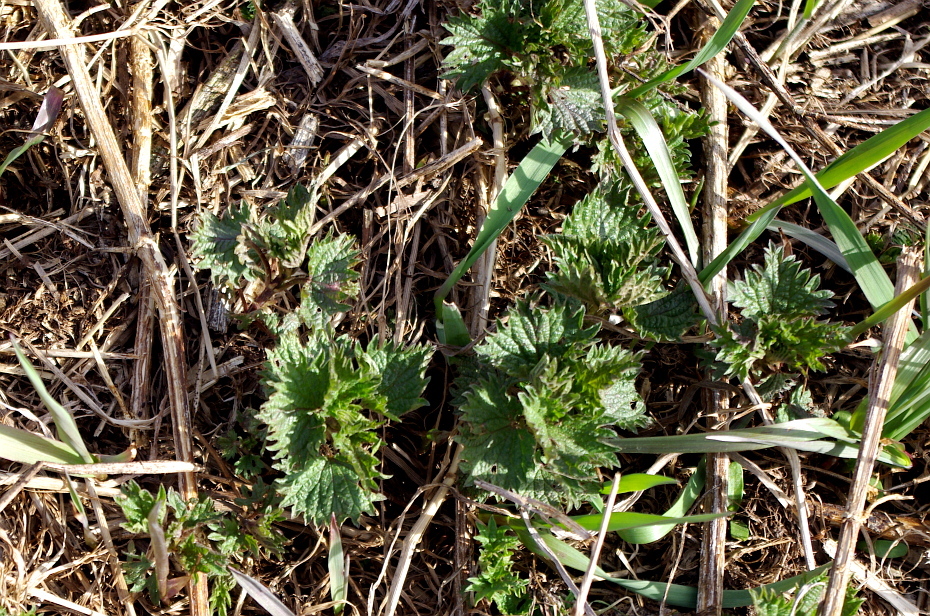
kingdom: Plantae
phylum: Tracheophyta
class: Magnoliopsida
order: Rosales
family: Urticaceae
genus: Urtica
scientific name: Urtica dioica
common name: Common nettle
